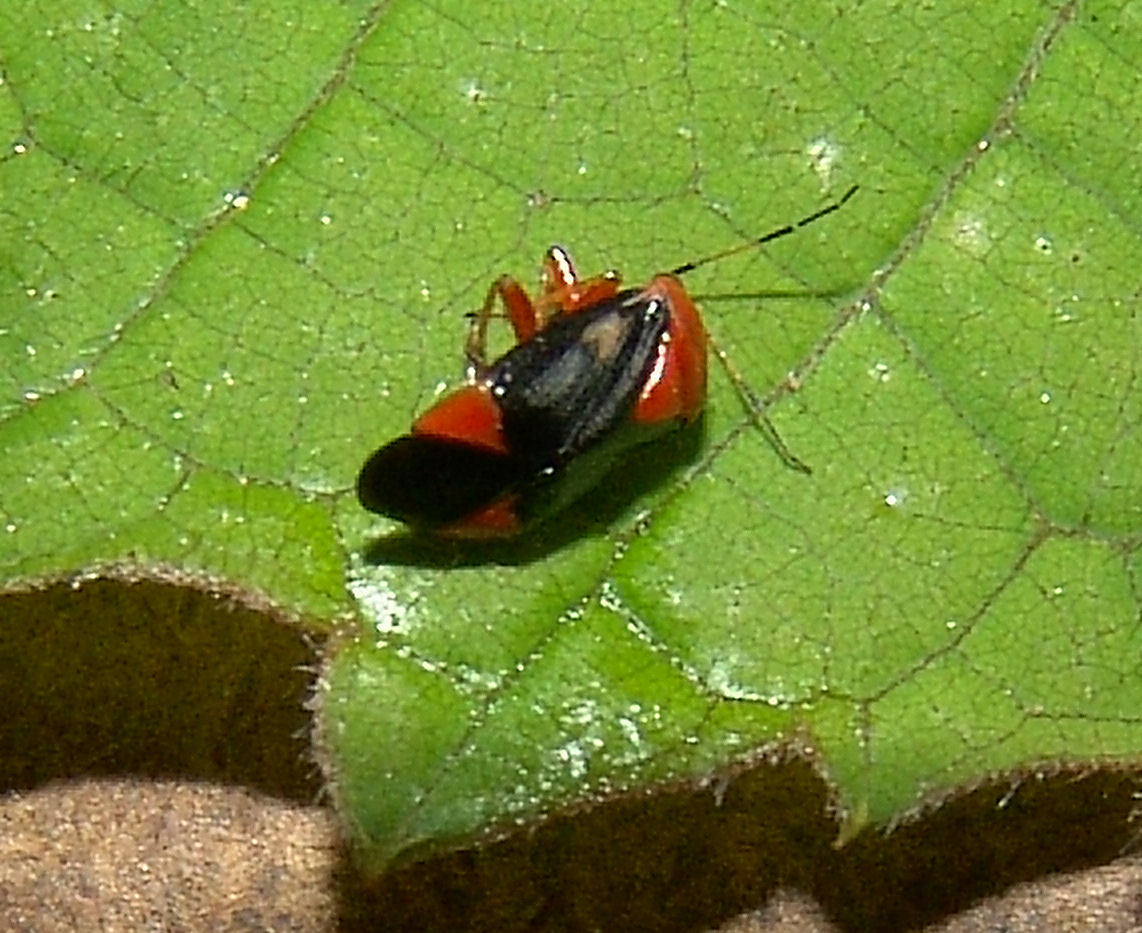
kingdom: Animalia
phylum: Arthropoda
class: Insecta
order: Hemiptera
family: Miridae
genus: Neocapsus
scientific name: Neocapsus cuneatus
